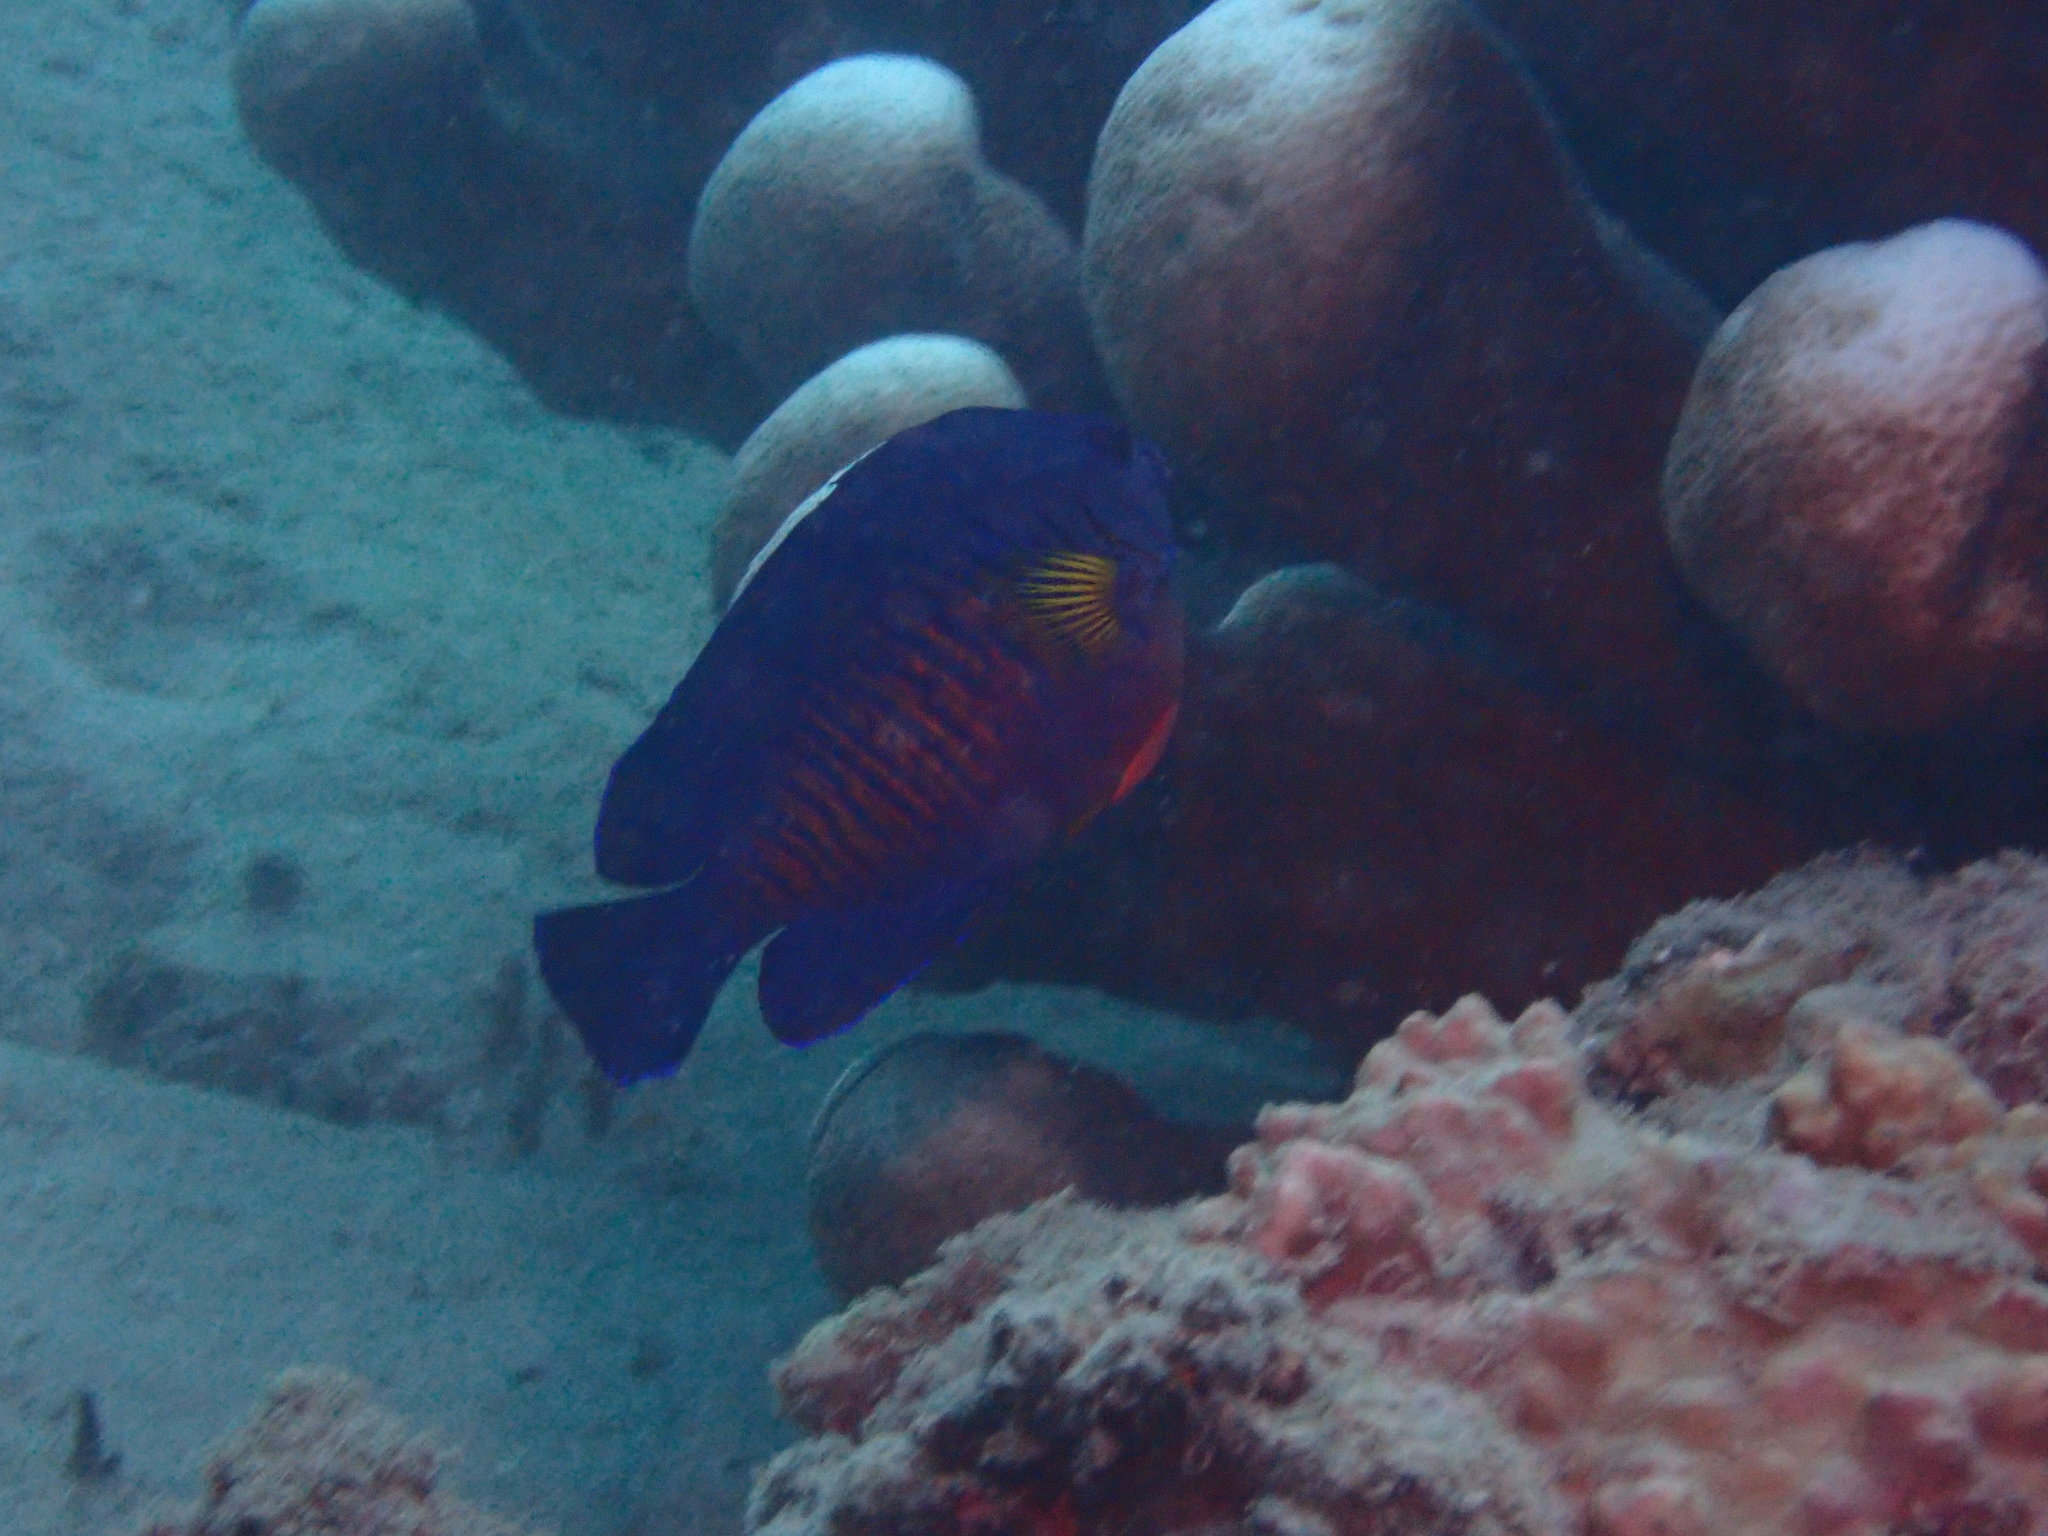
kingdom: Animalia
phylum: Chordata
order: Perciformes
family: Pomacanthidae
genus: Centropyge
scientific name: Centropyge bispinosa
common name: Coral beauty
